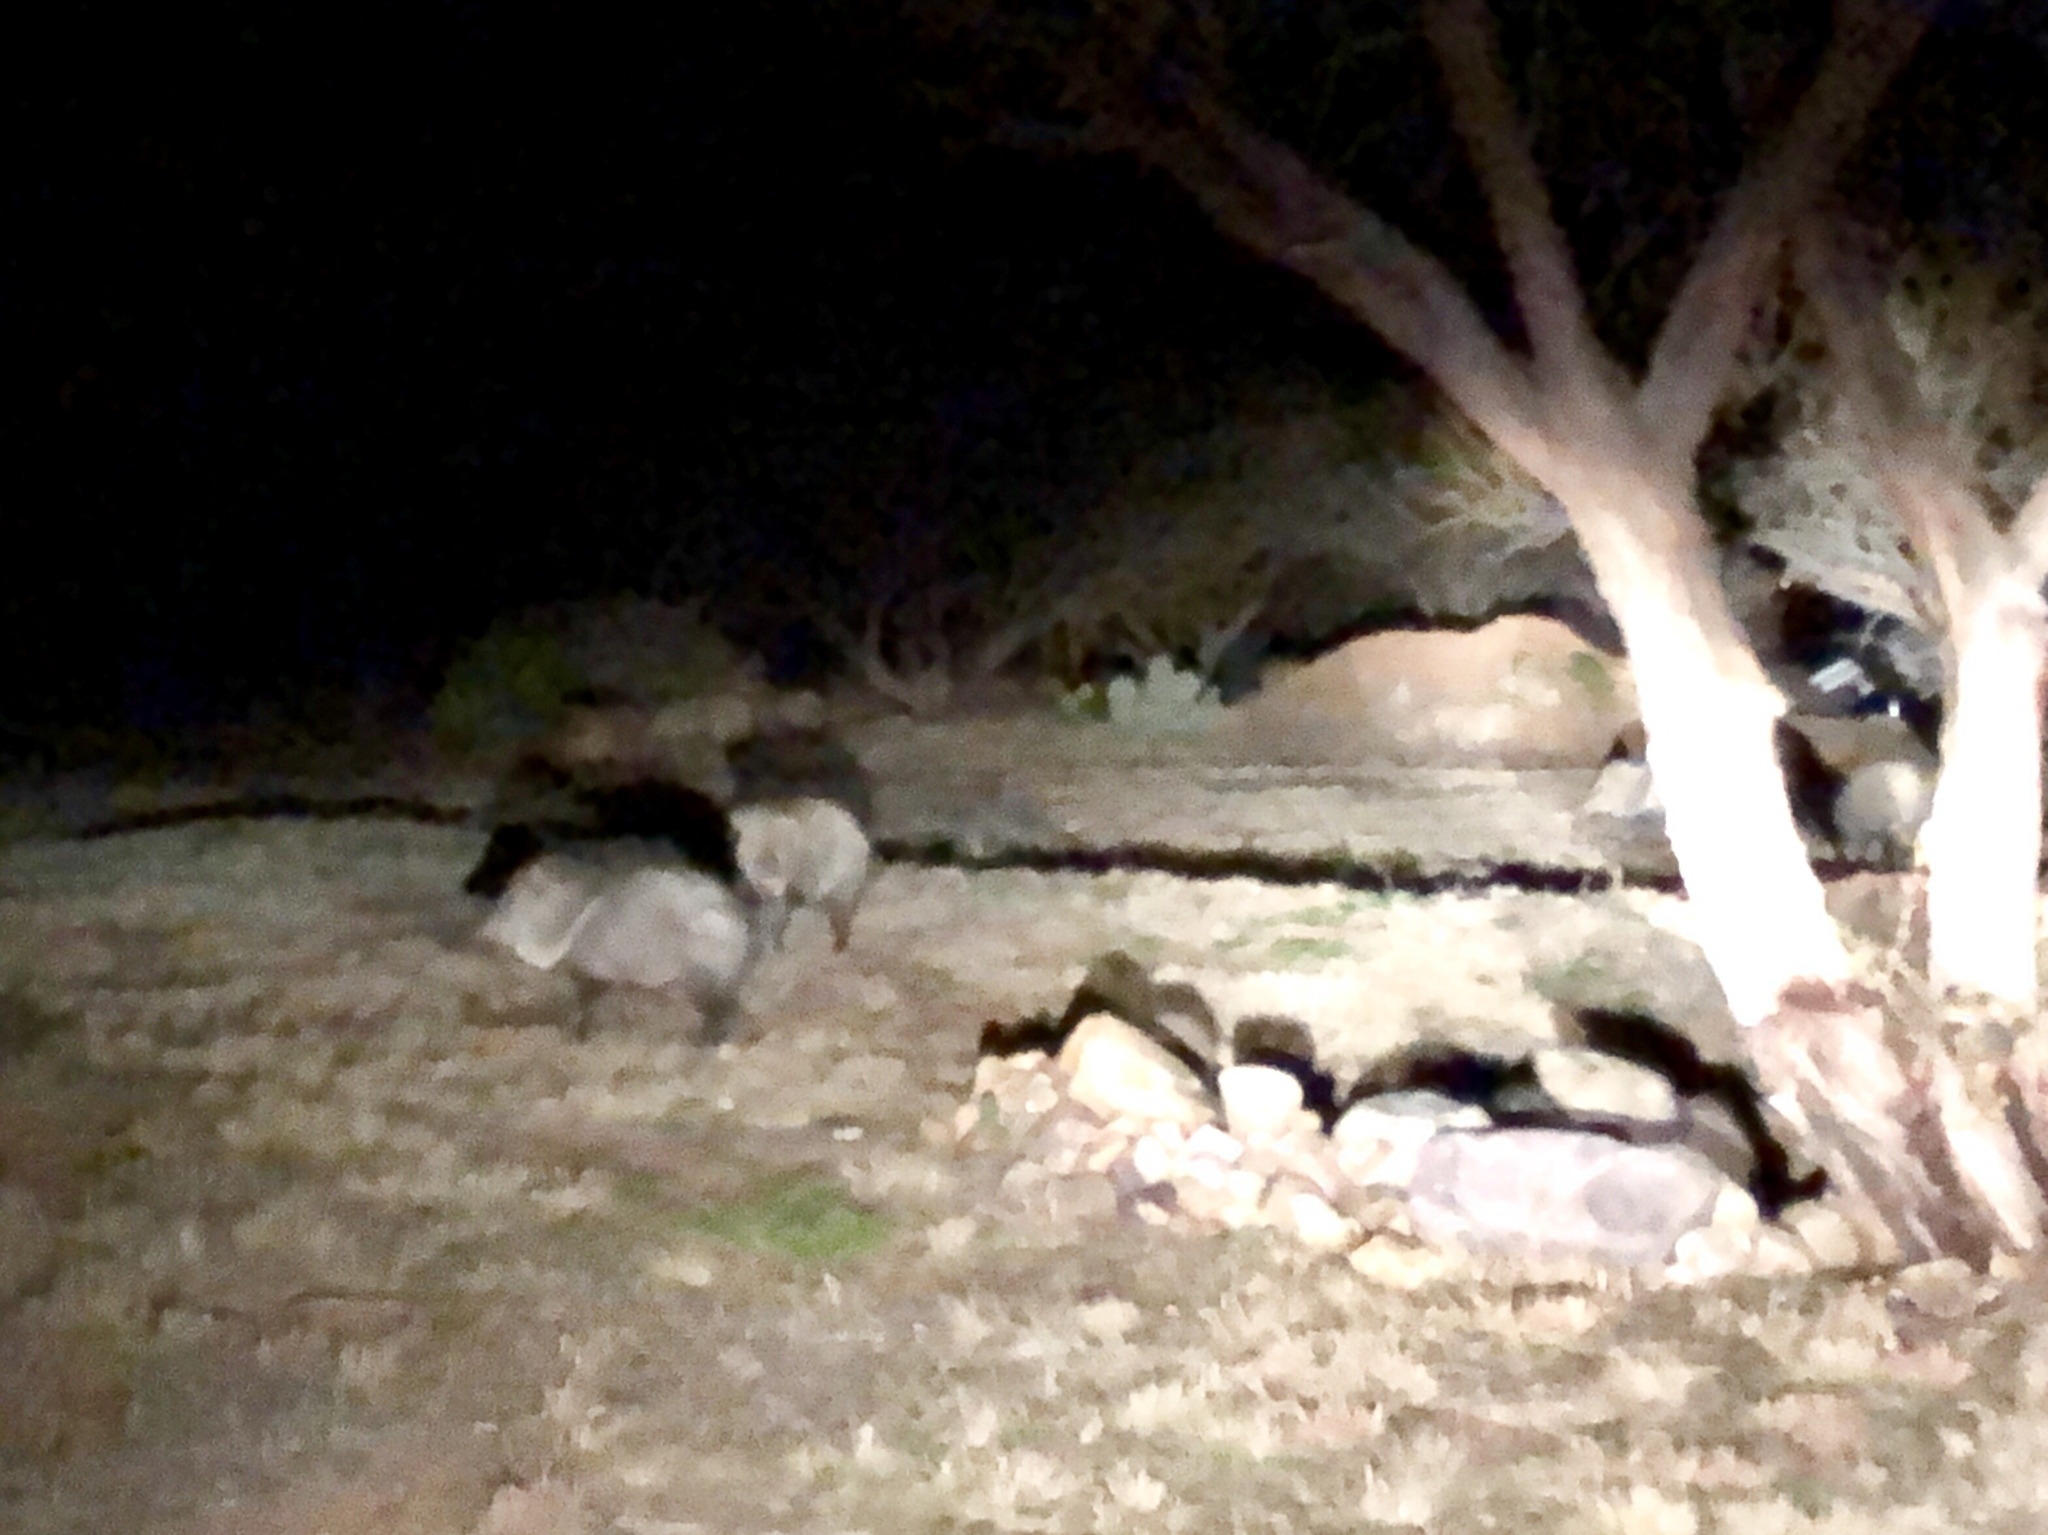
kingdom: Animalia
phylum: Chordata
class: Mammalia
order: Artiodactyla
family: Tayassuidae
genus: Pecari
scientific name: Pecari tajacu
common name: Collared peccary
